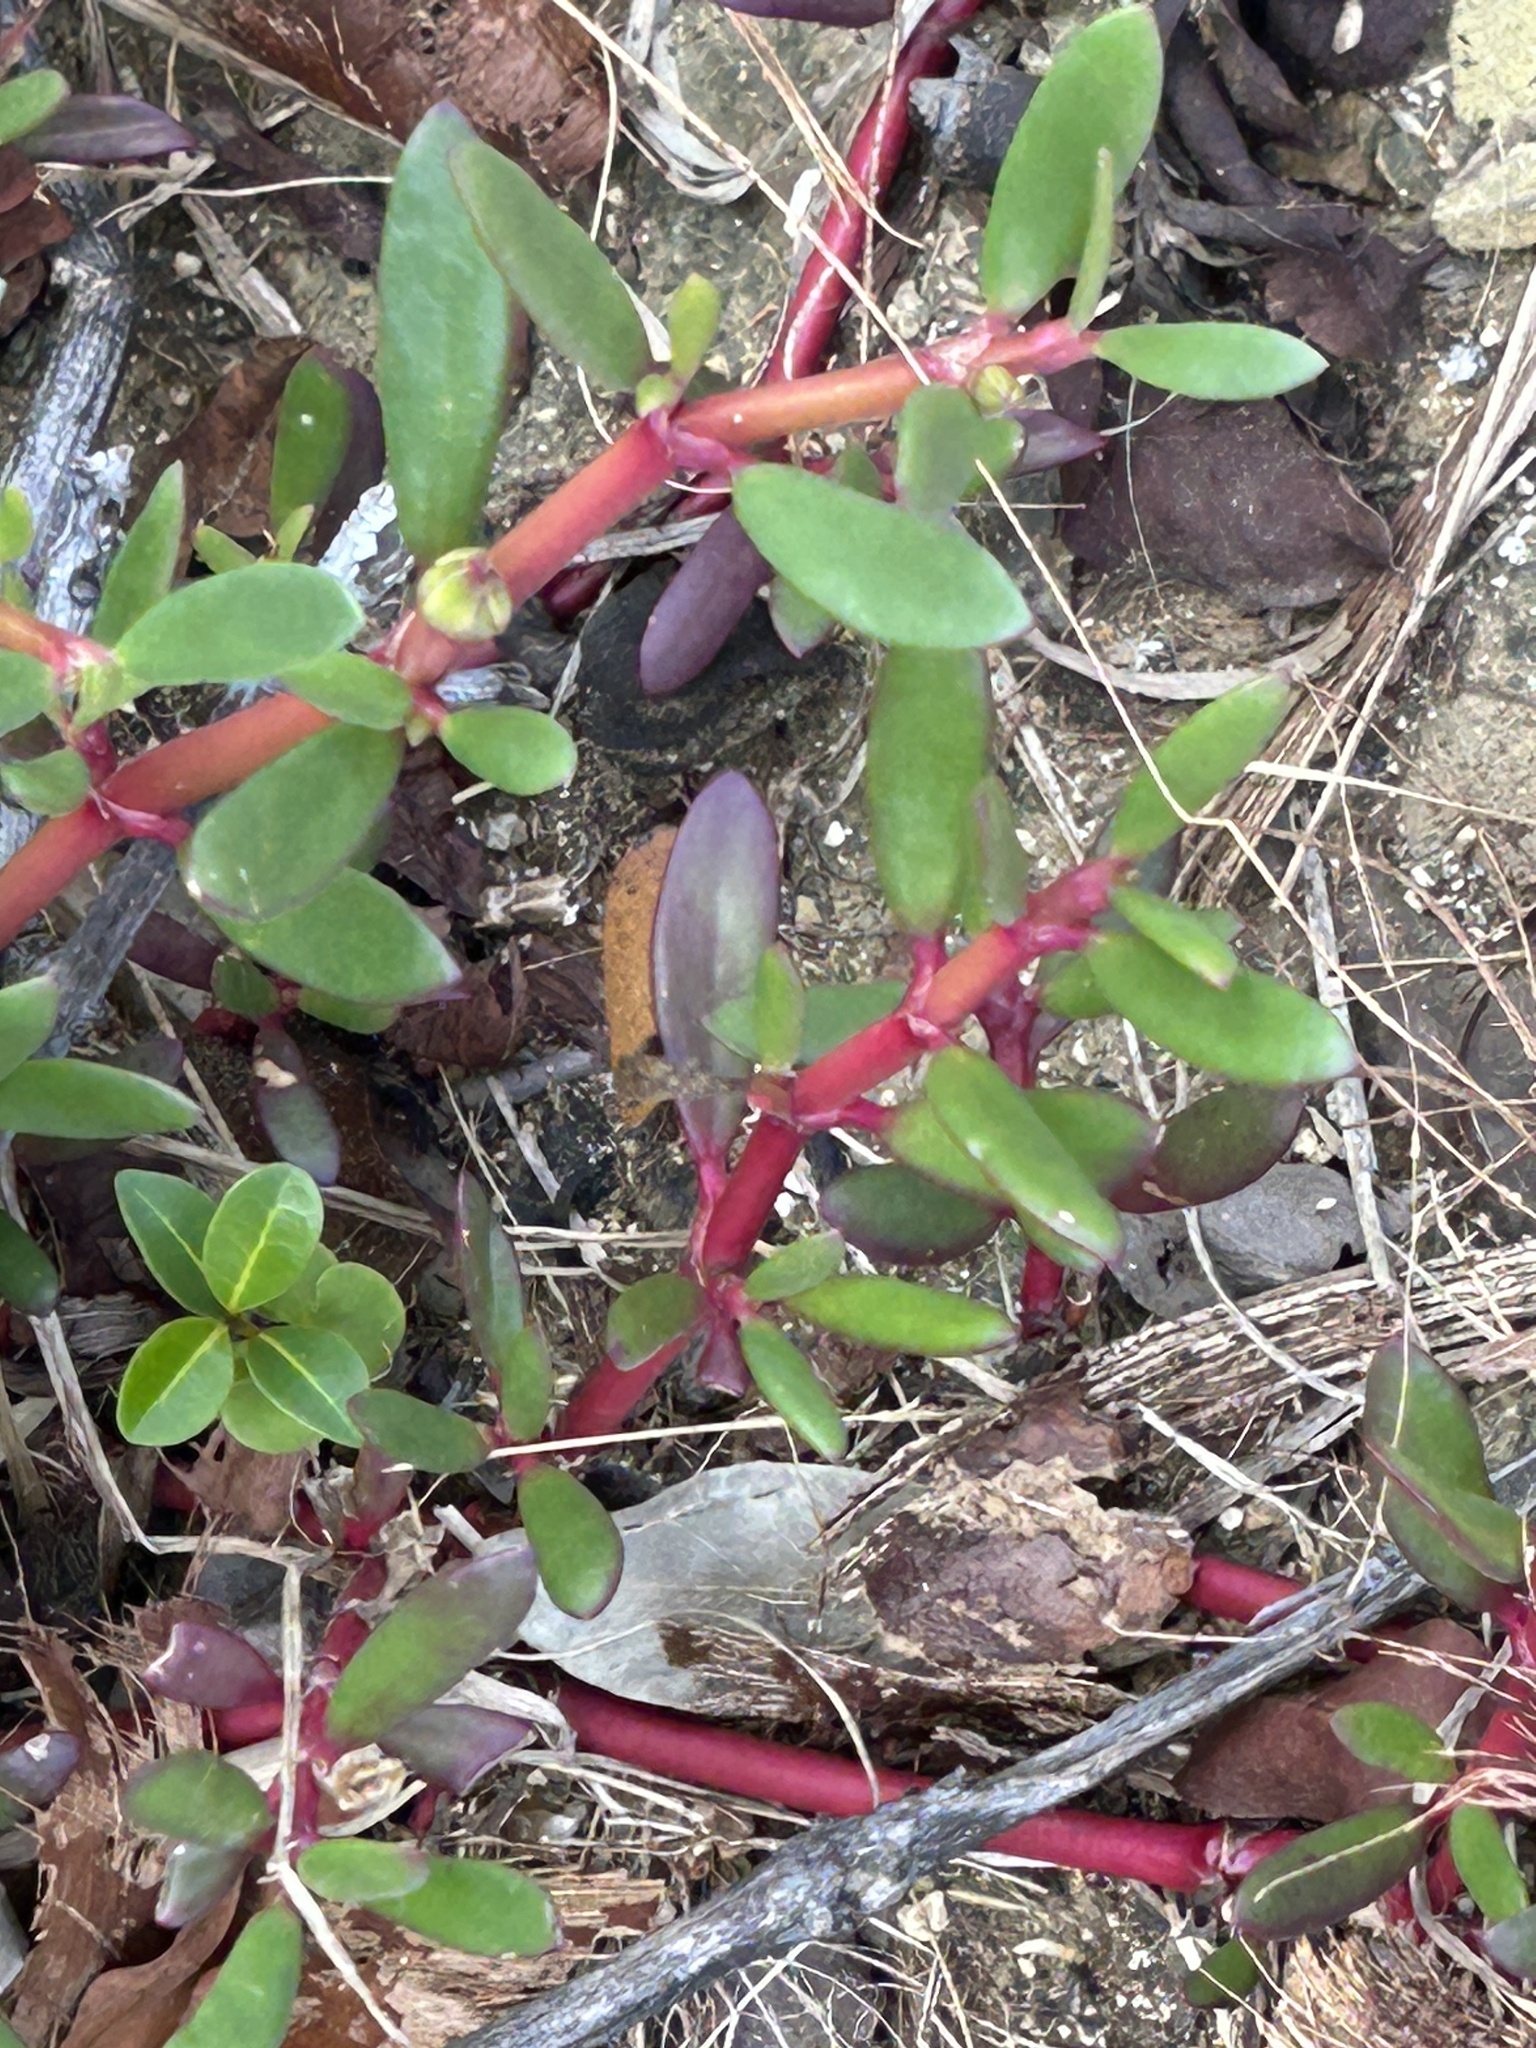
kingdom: Plantae
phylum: Tracheophyta
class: Magnoliopsida
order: Caryophyllales
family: Aizoaceae
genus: Sesuvium
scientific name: Sesuvium portulacastrum
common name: Sea-purslane
